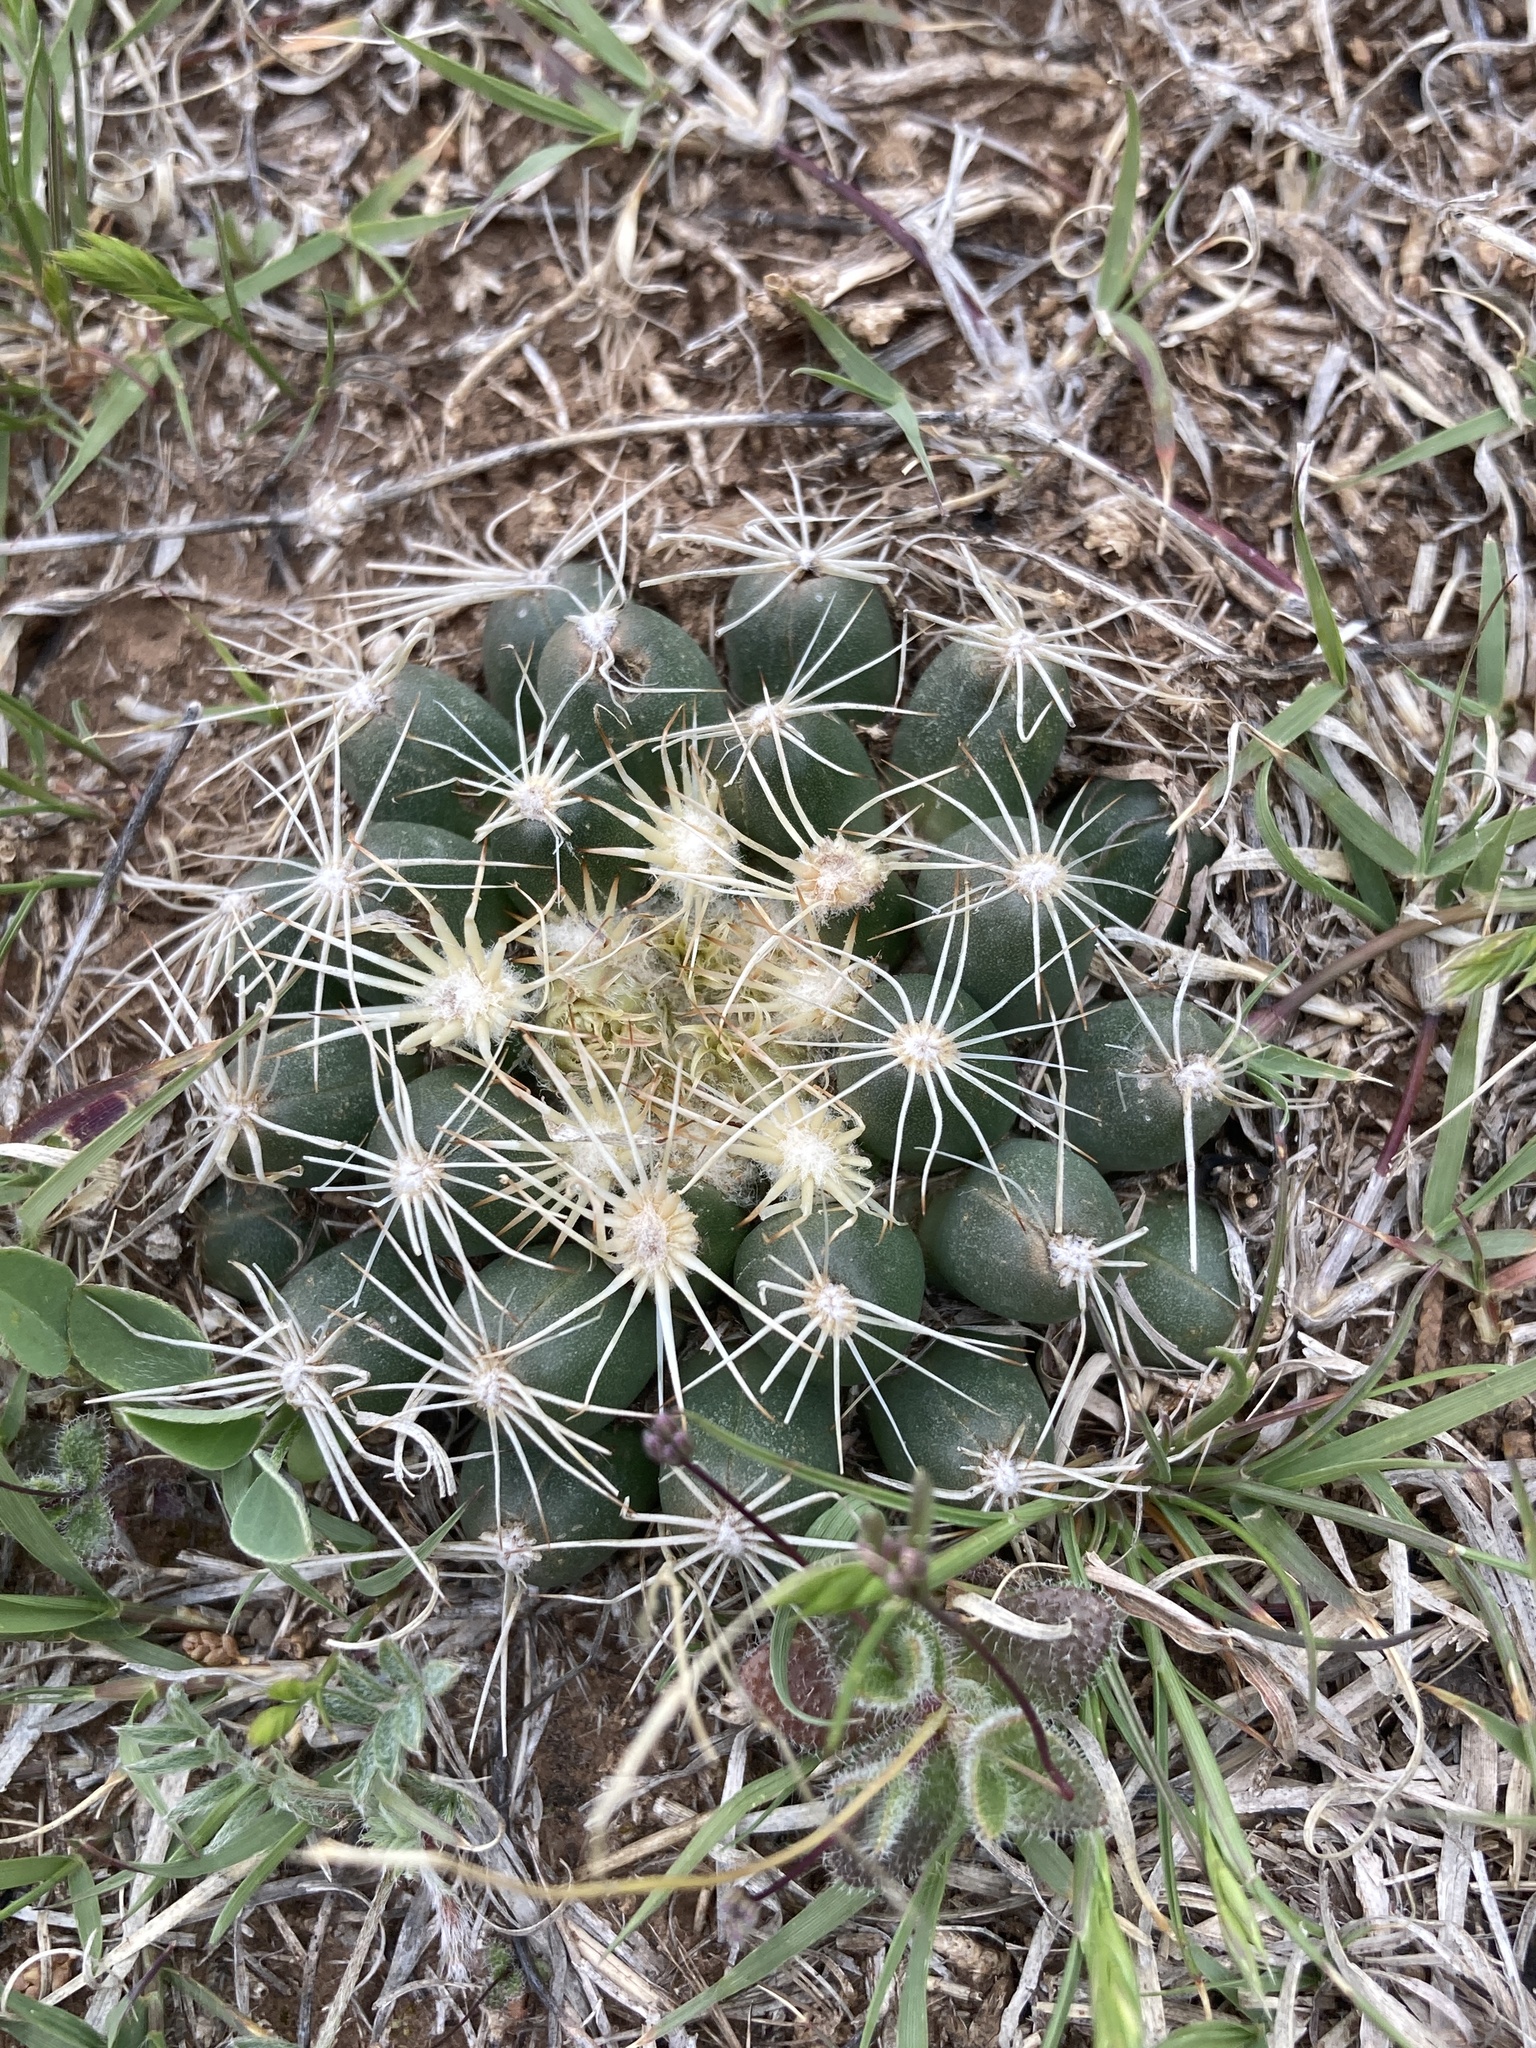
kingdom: Plantae
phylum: Tracheophyta
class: Magnoliopsida
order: Caryophyllales
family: Cactaceae
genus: Pelecyphora
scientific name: Pelecyphora missouriensis
